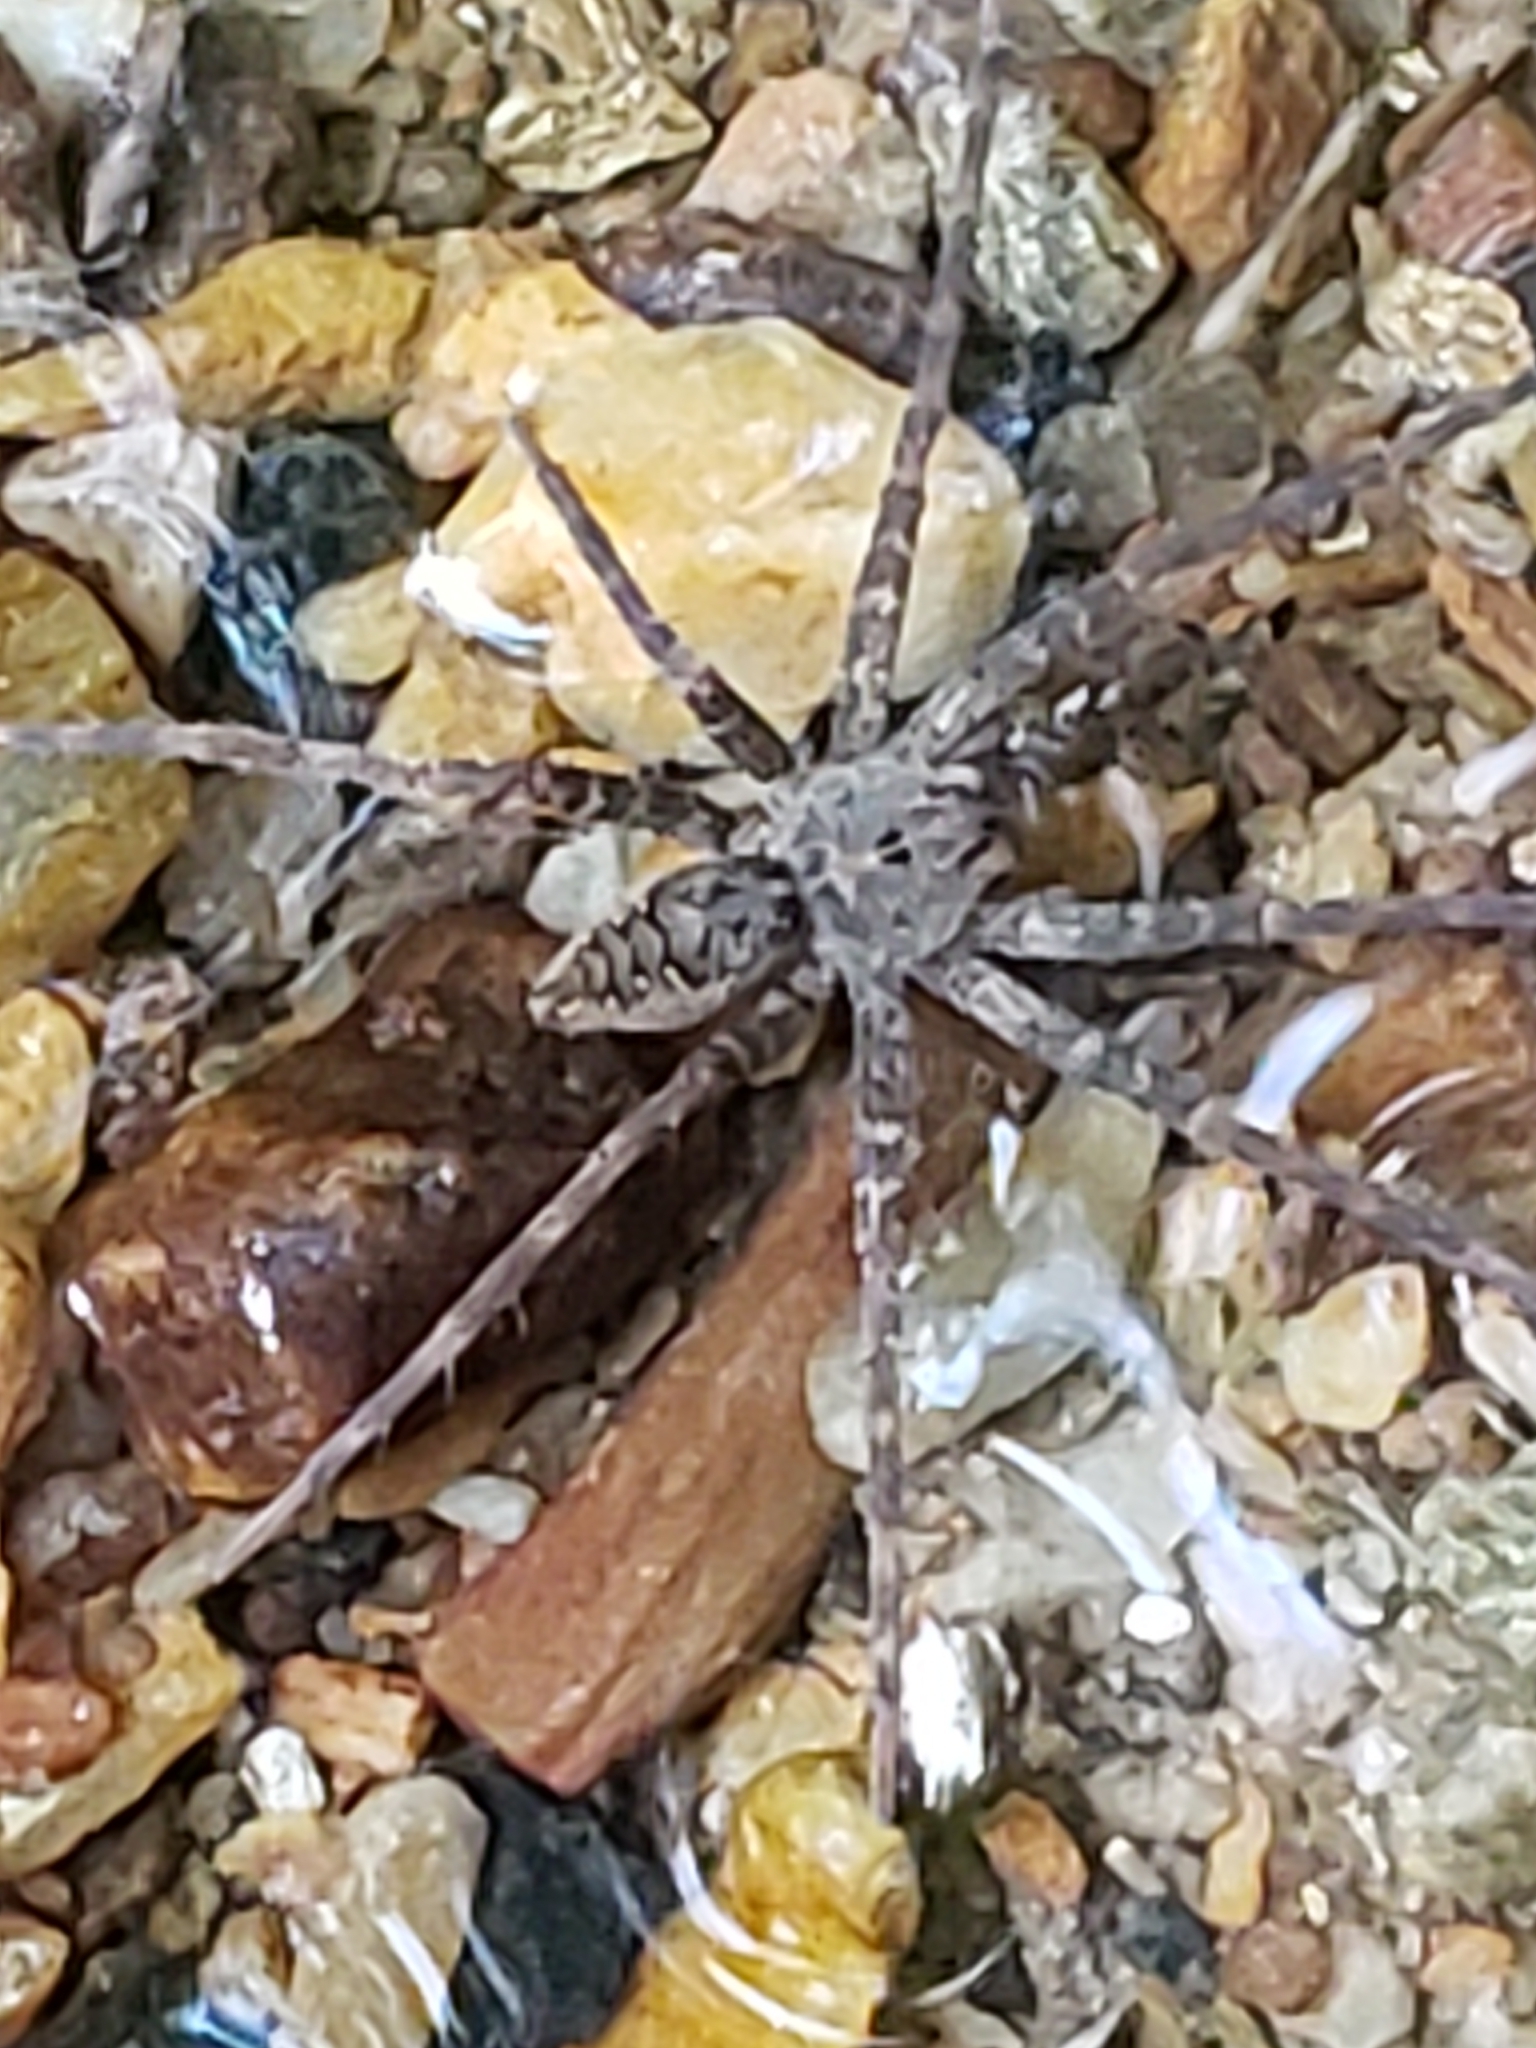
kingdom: Animalia
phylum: Arthropoda
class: Arachnida
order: Araneae
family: Pisauridae
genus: Dolomedes
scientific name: Dolomedes vittatus
